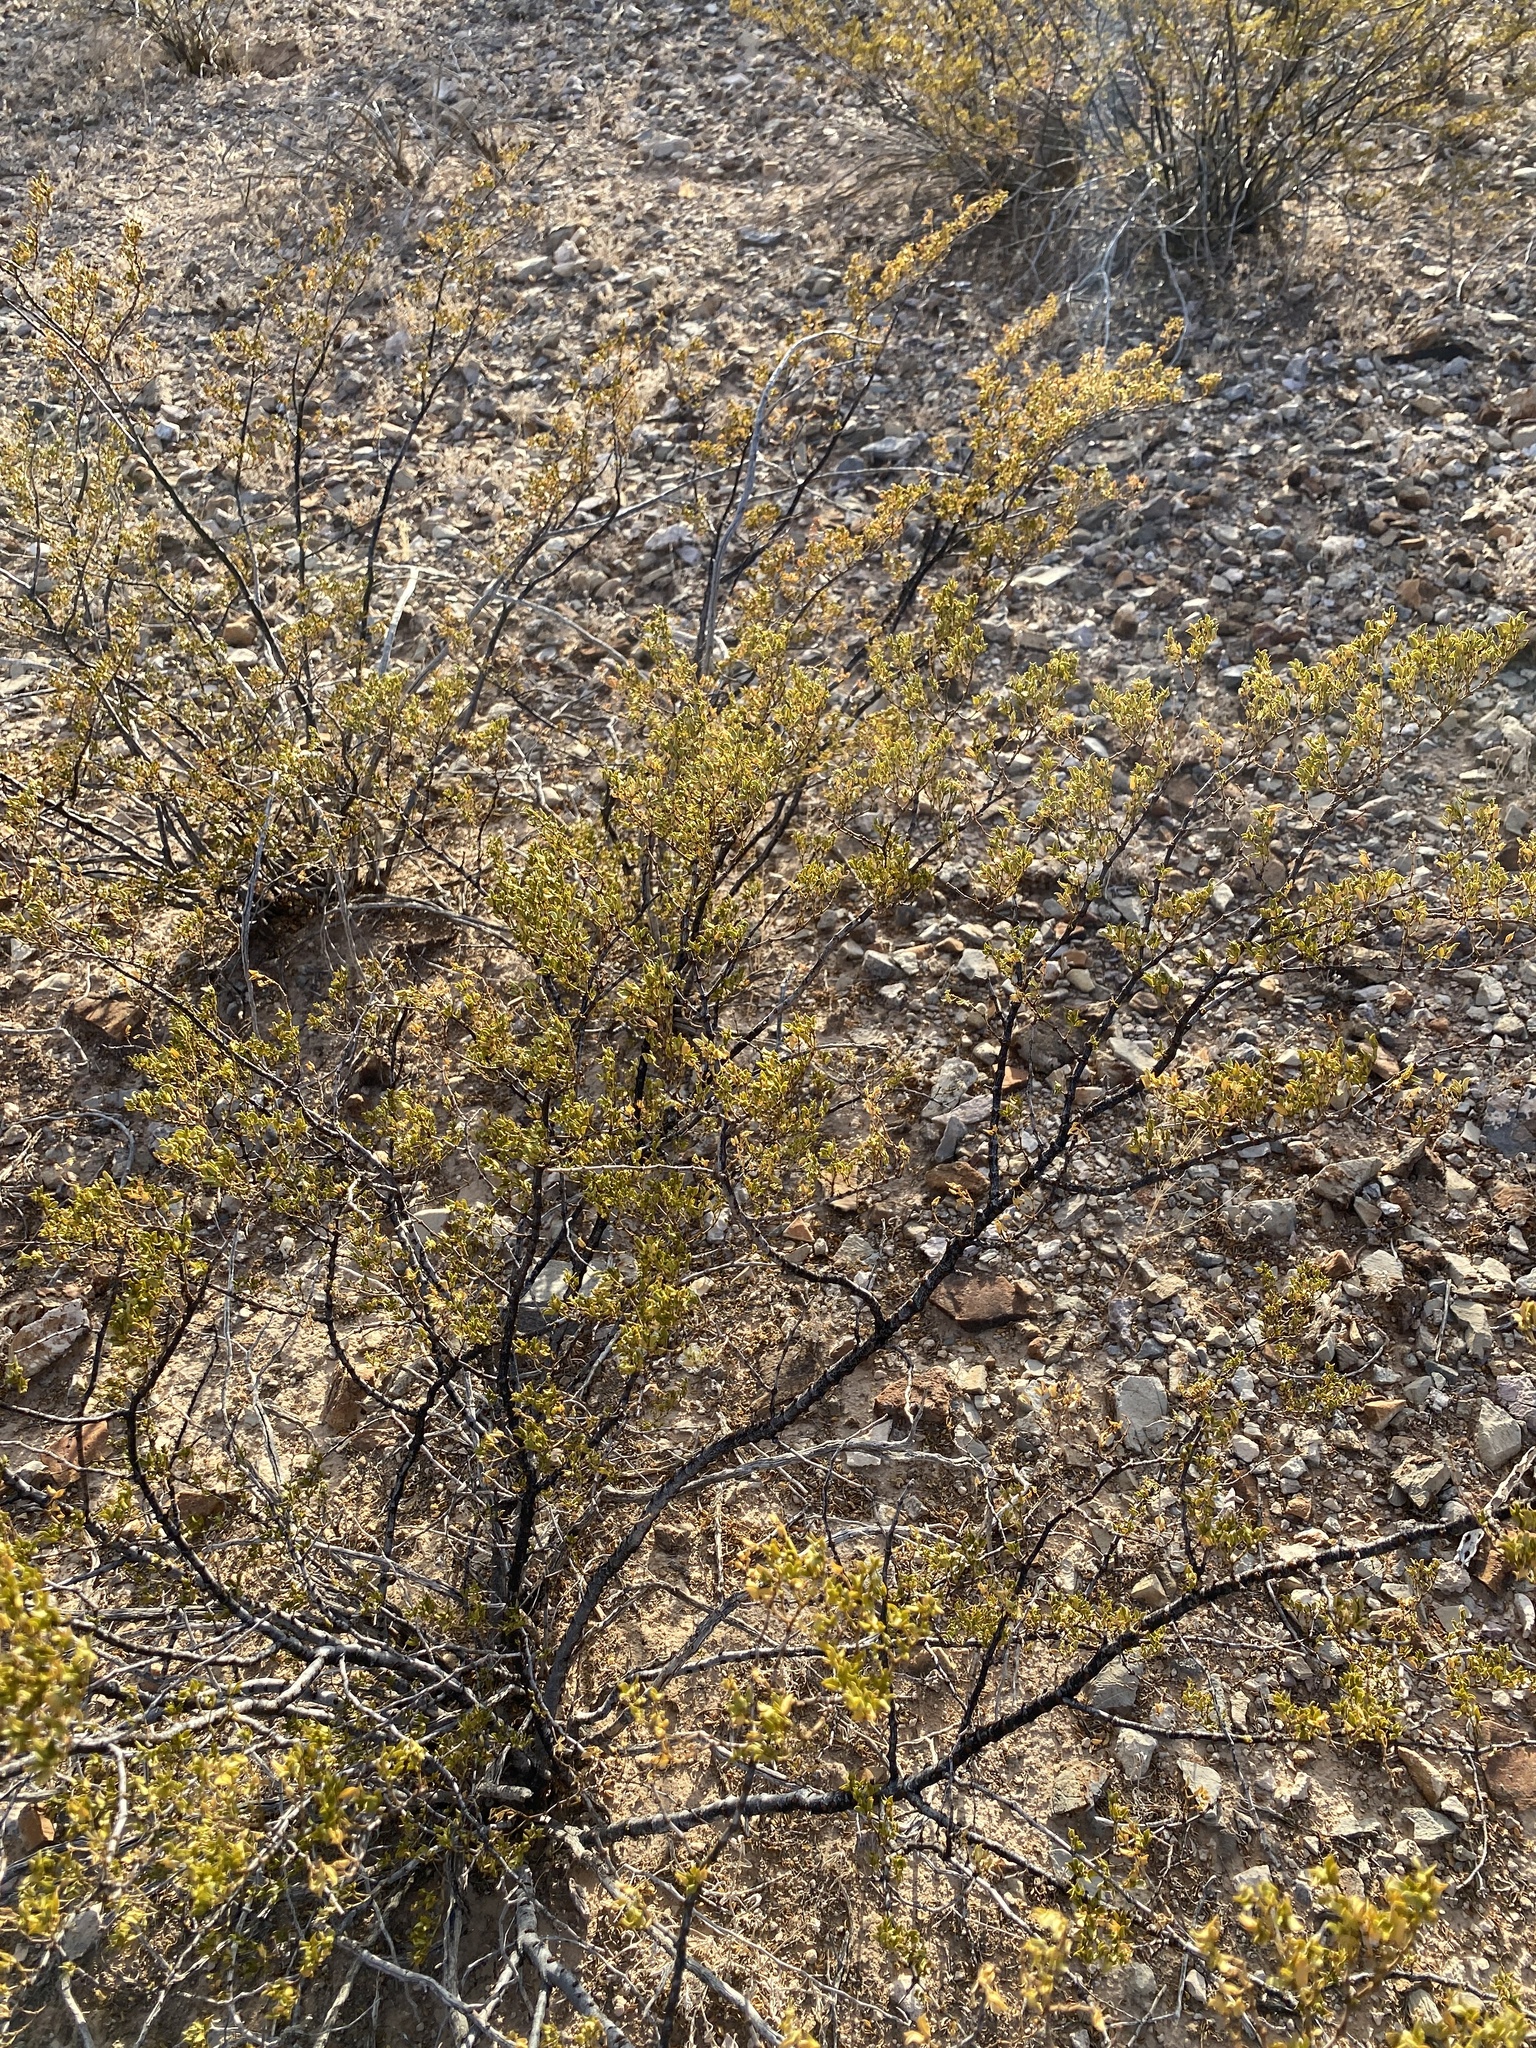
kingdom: Plantae
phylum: Tracheophyta
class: Magnoliopsida
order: Zygophyllales
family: Zygophyllaceae
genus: Larrea
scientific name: Larrea tridentata
